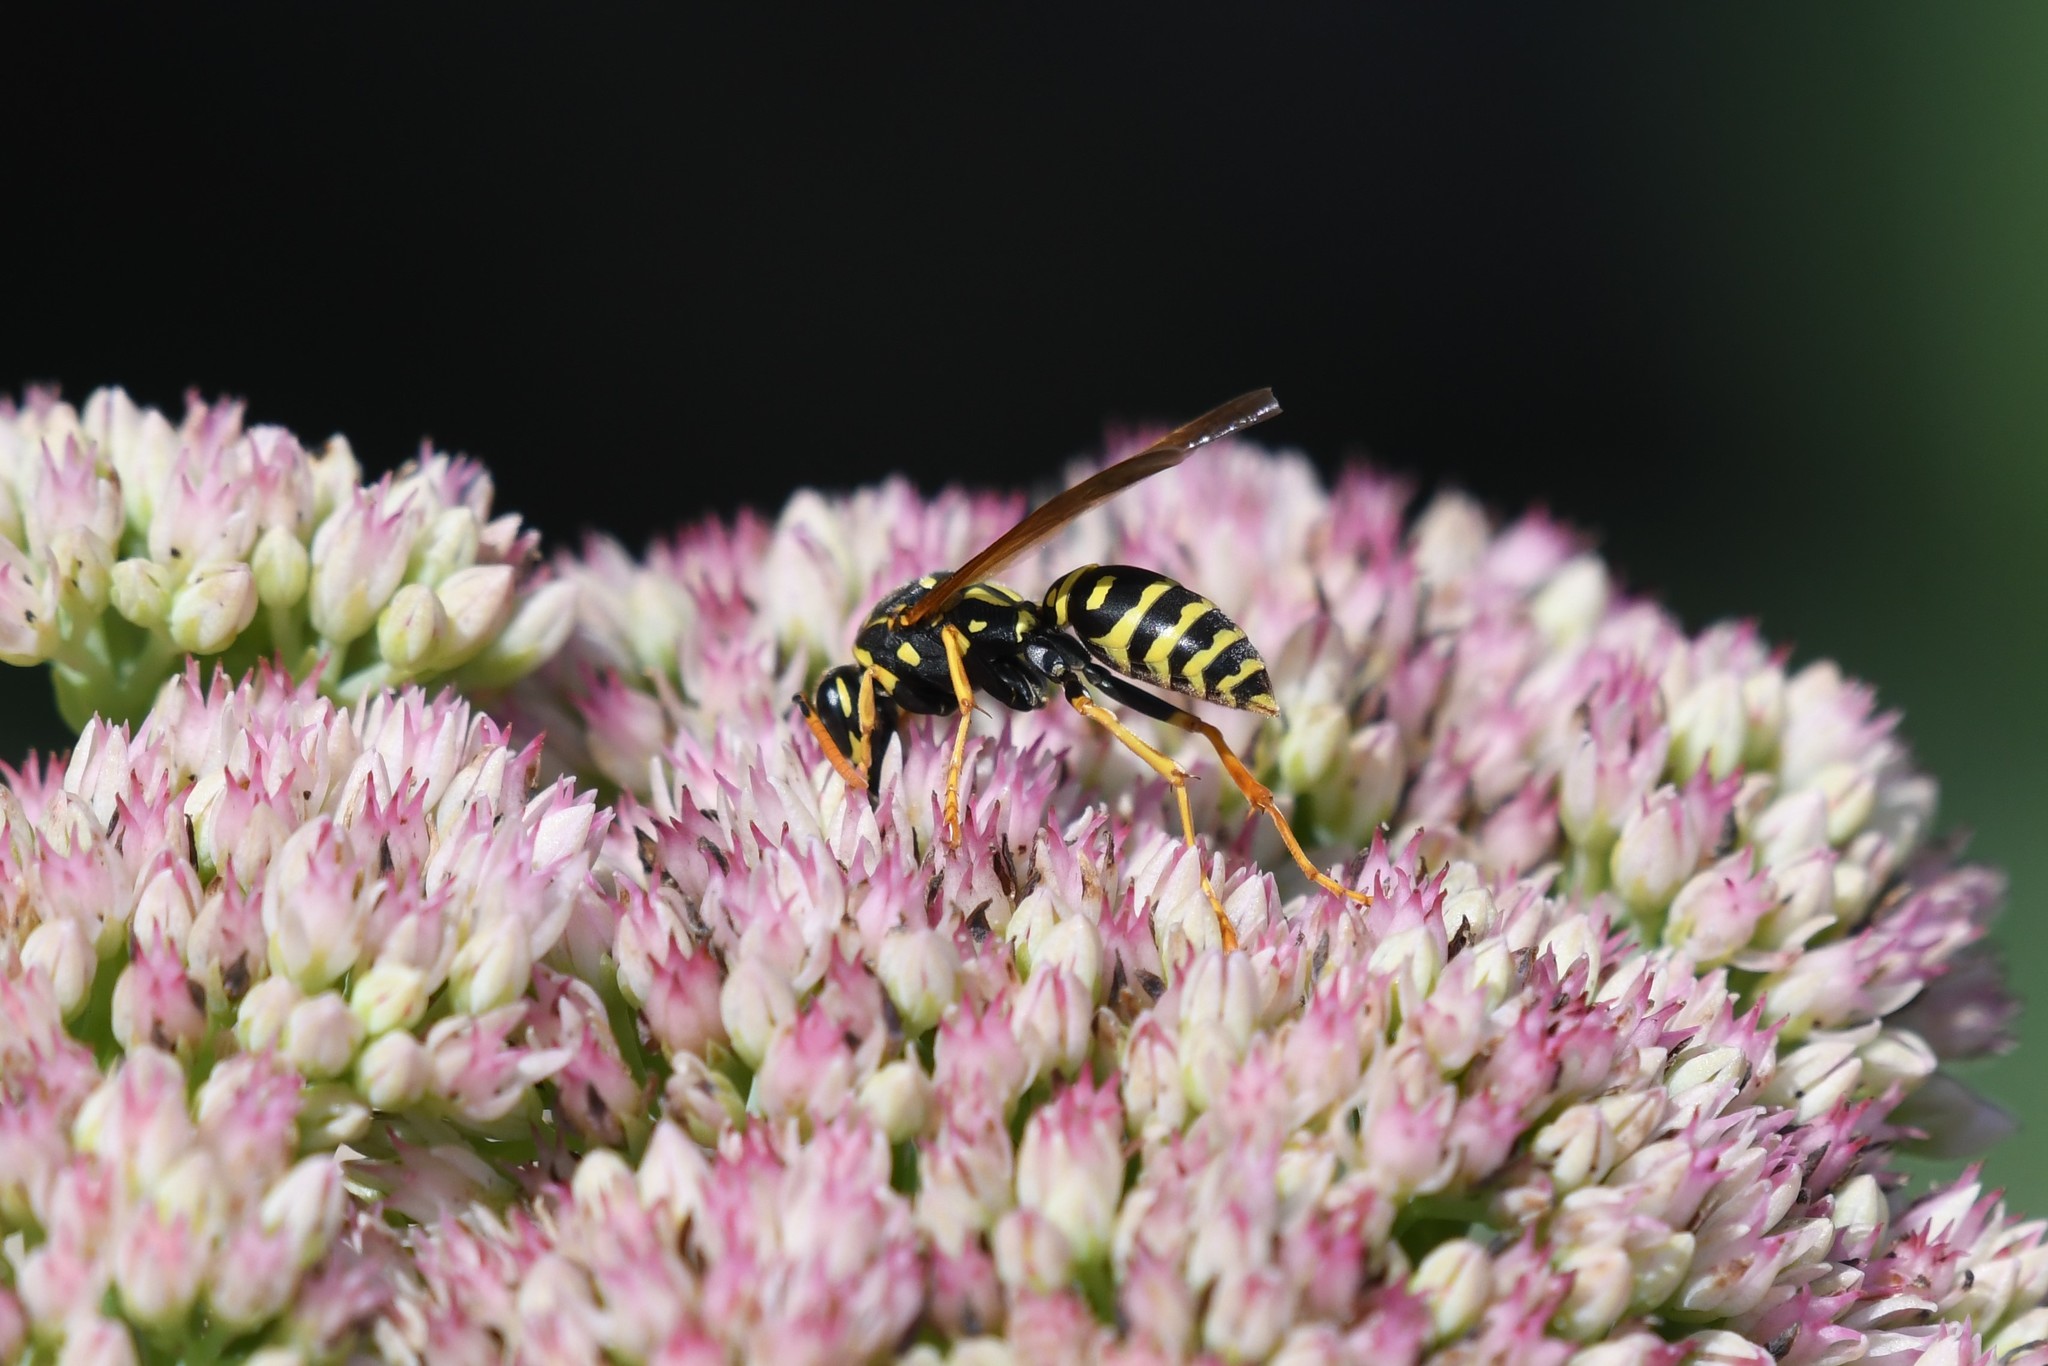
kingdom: Animalia
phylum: Arthropoda
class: Insecta
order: Hymenoptera
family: Eumenidae
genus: Polistes
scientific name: Polistes dominula
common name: Paper wasp
